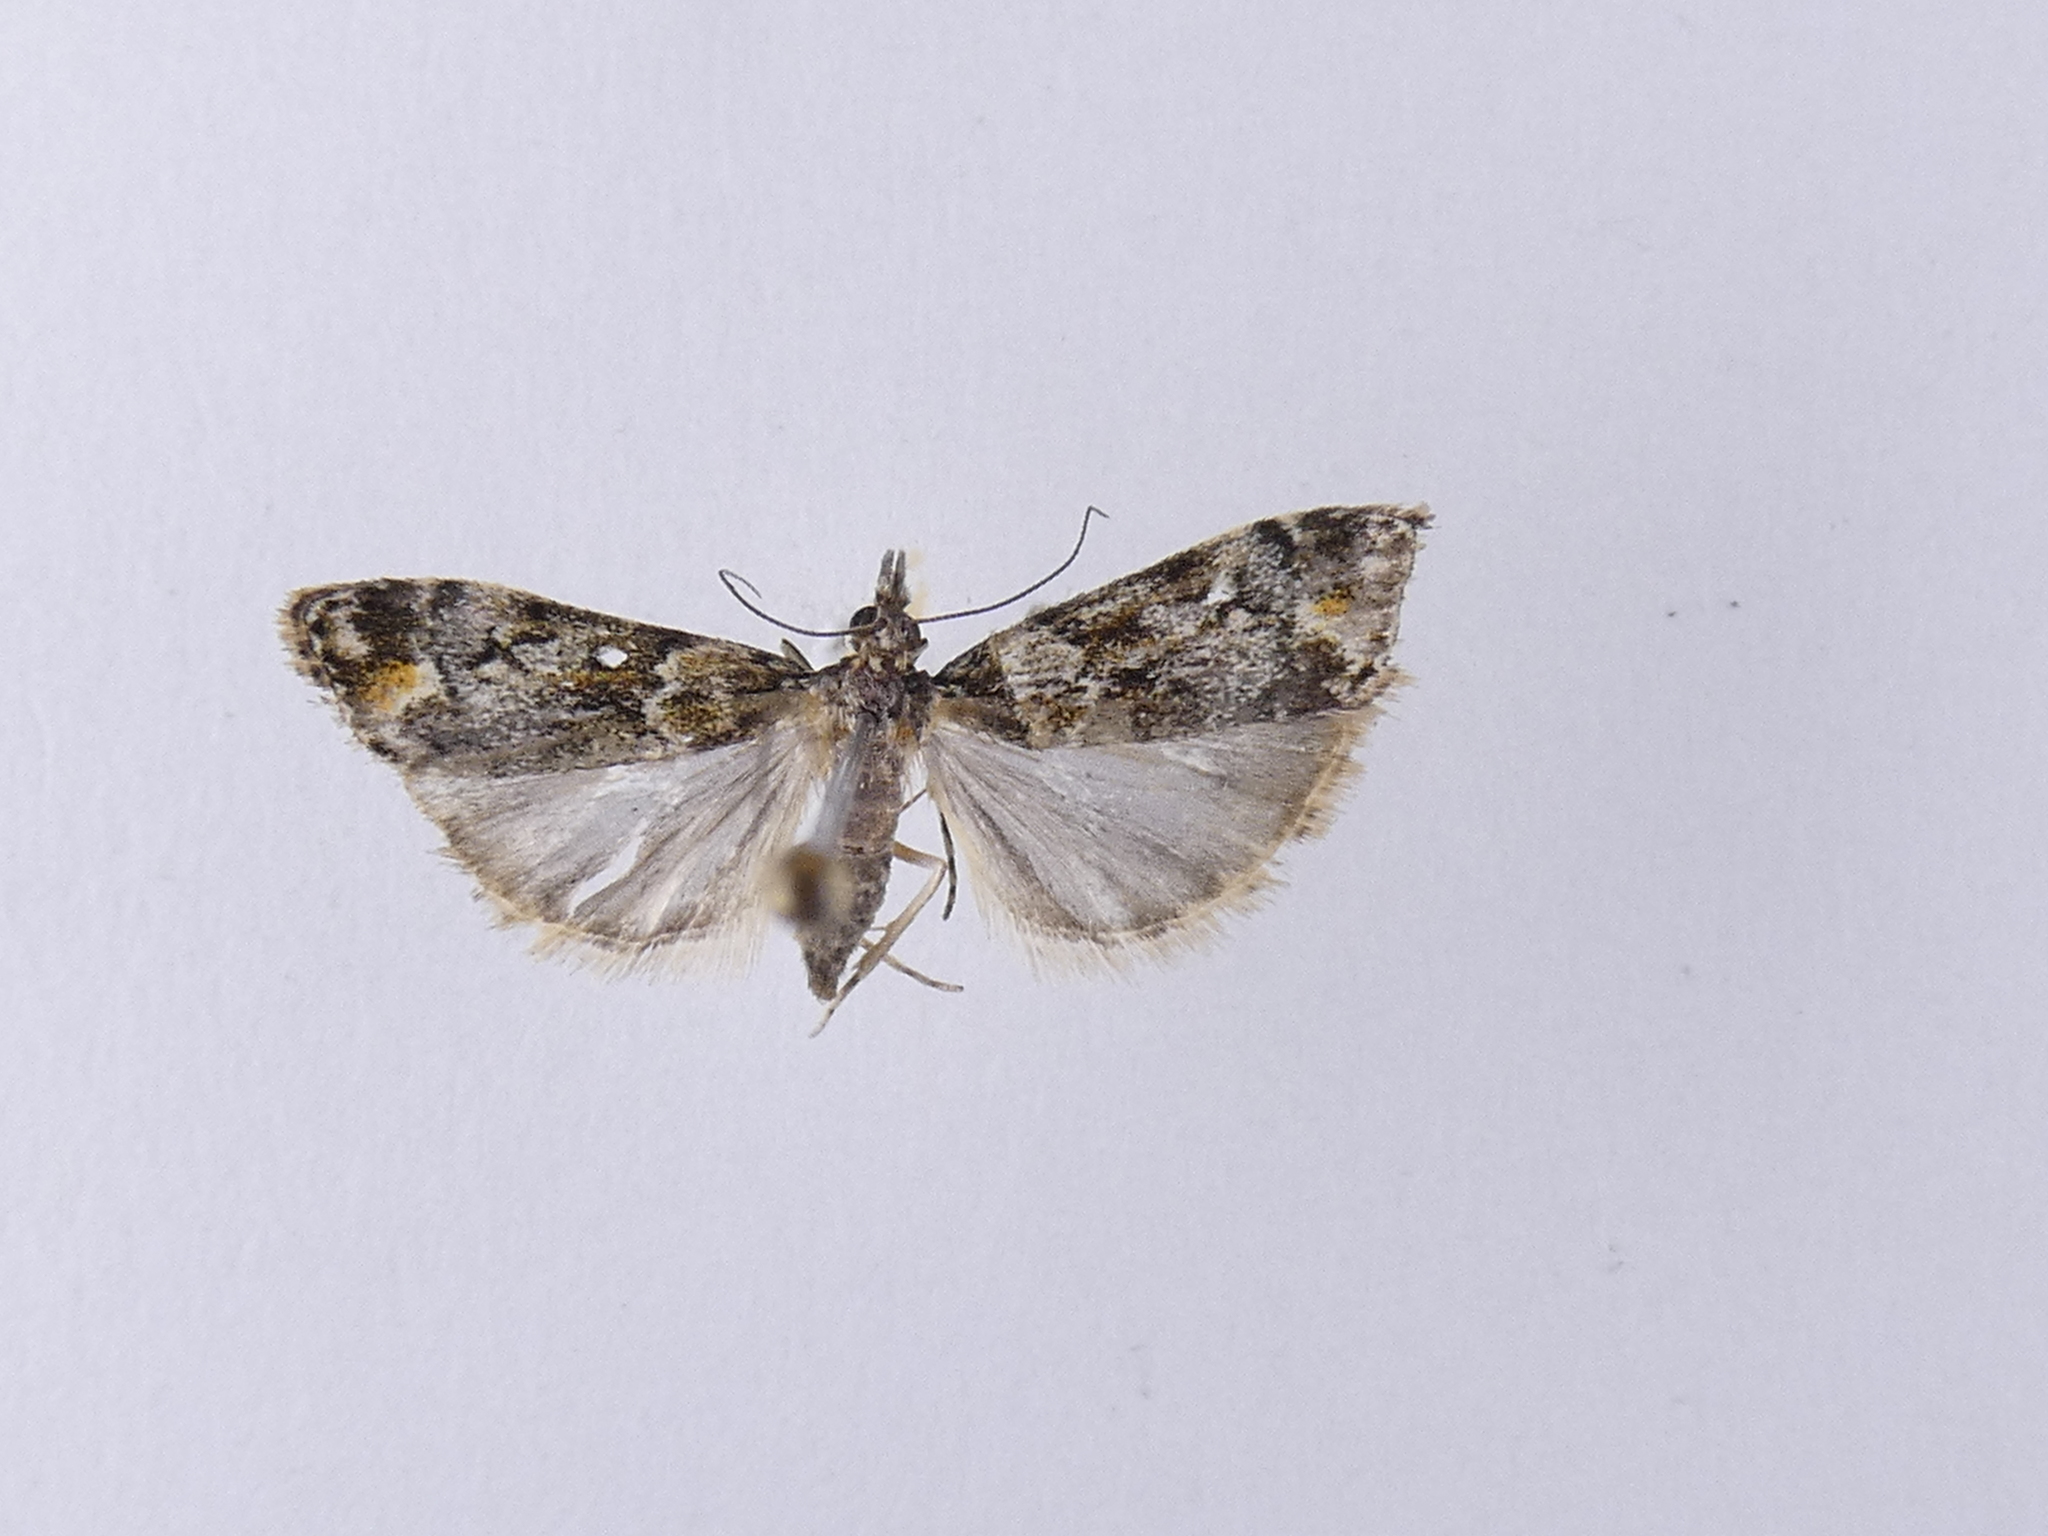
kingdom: Animalia
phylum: Arthropoda
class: Insecta
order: Lepidoptera
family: Crambidae
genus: Eudonia
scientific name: Eudonia minualis
